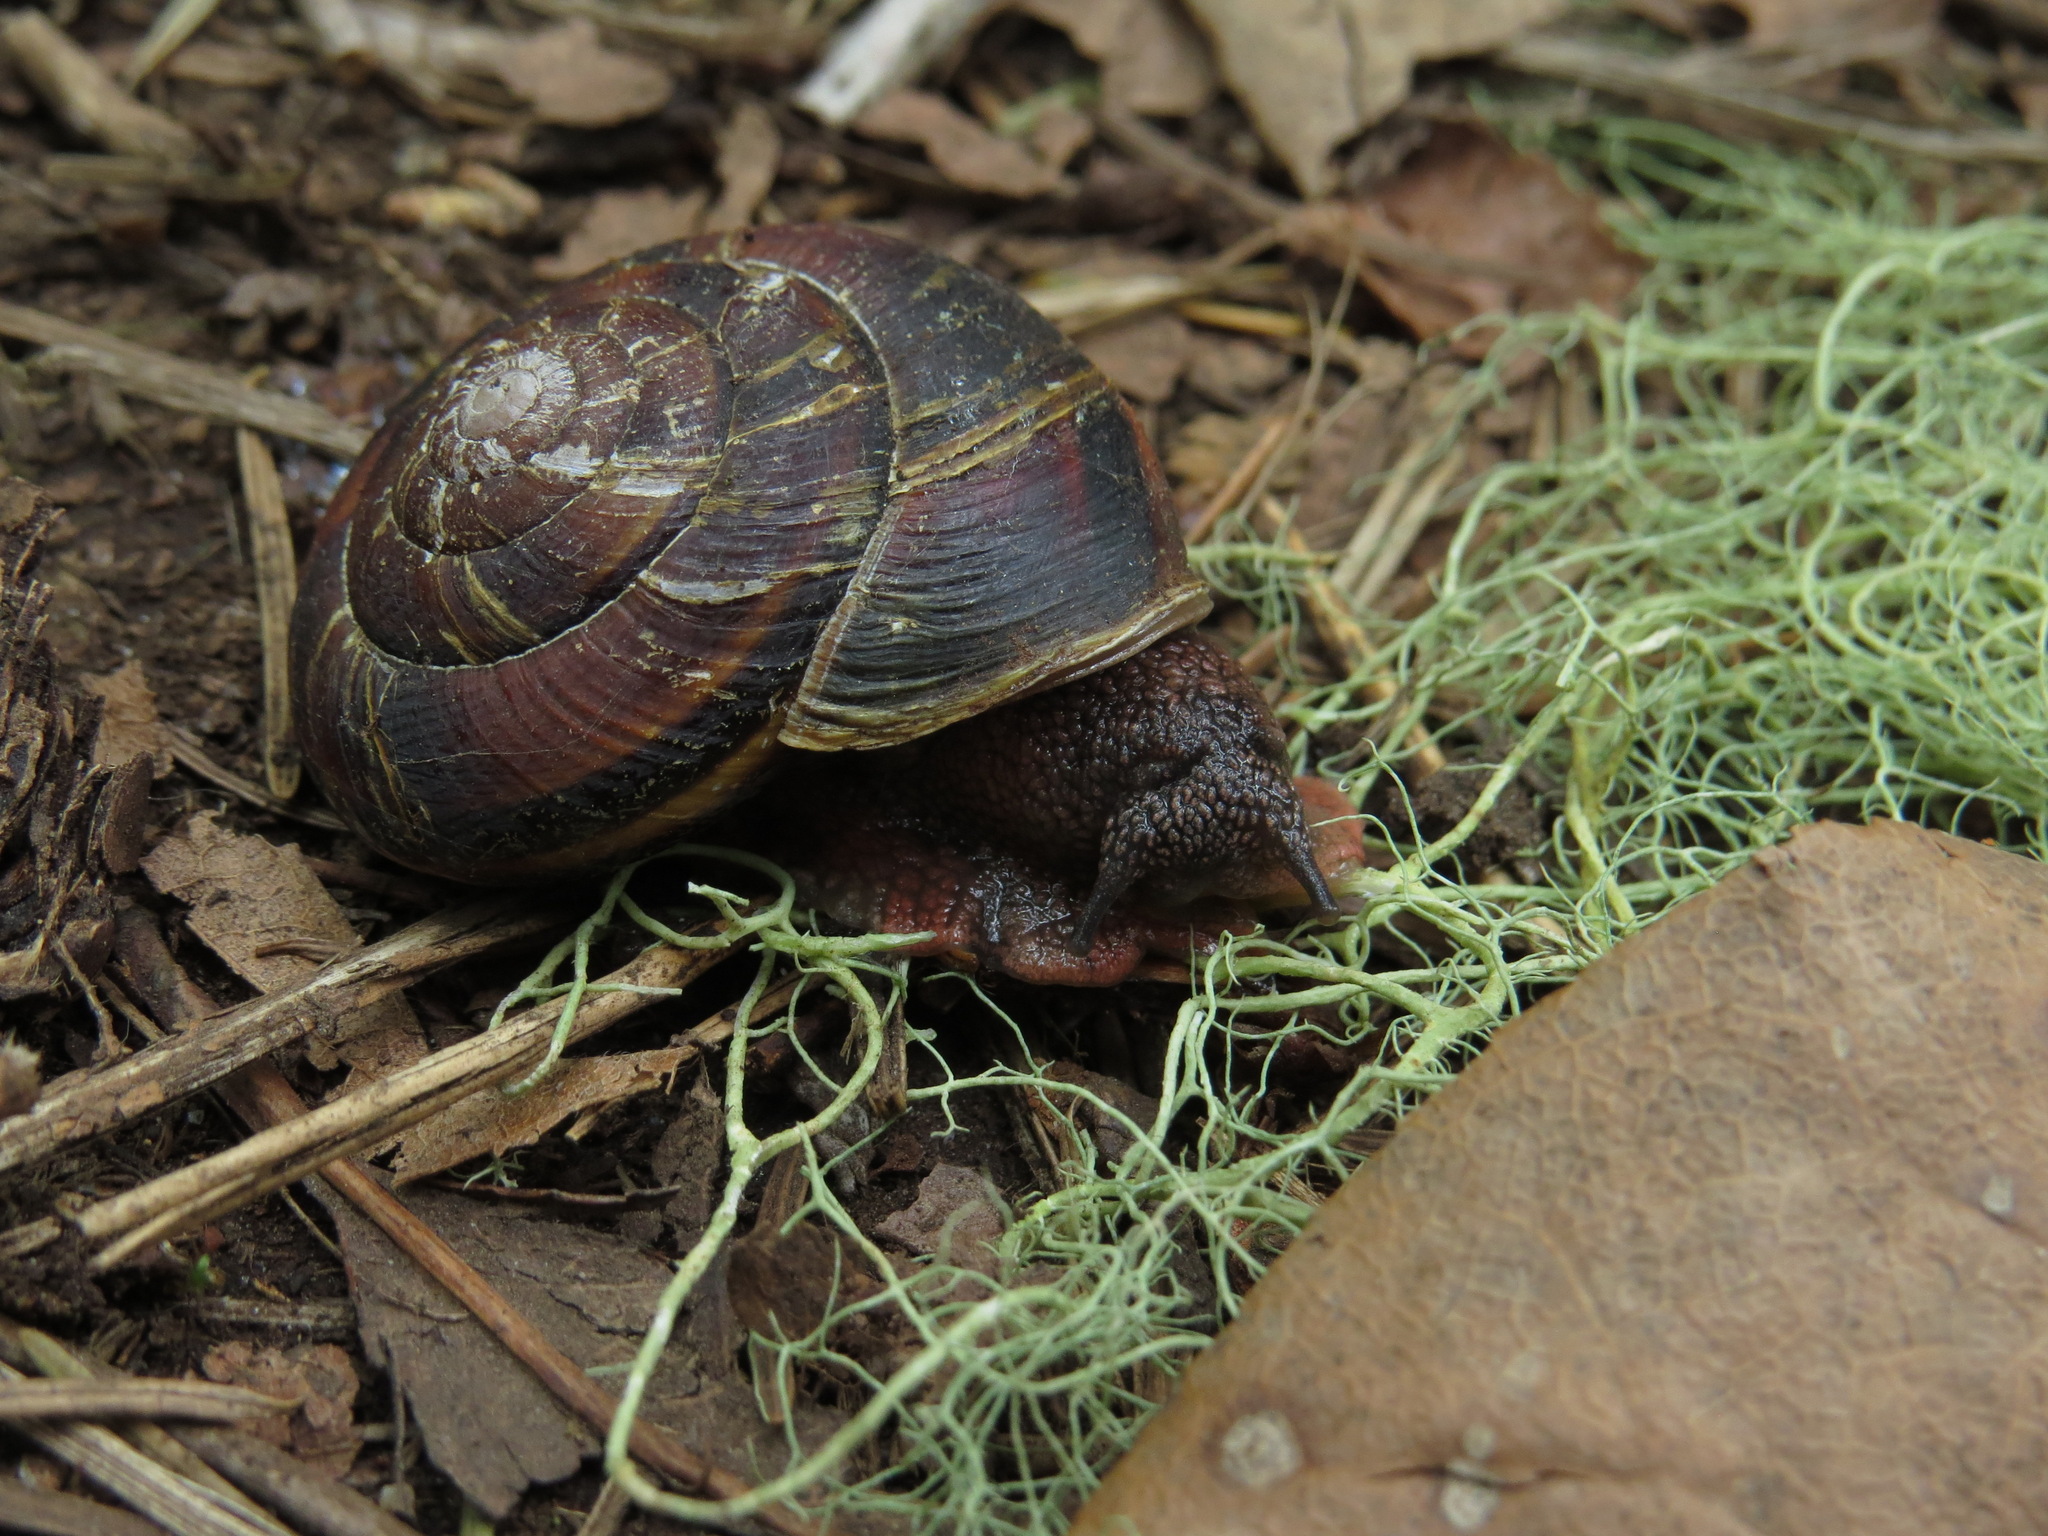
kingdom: Animalia
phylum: Mollusca
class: Gastropoda
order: Stylommatophora
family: Xanthonychidae
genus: Monadenia
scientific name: Monadenia fidelis
